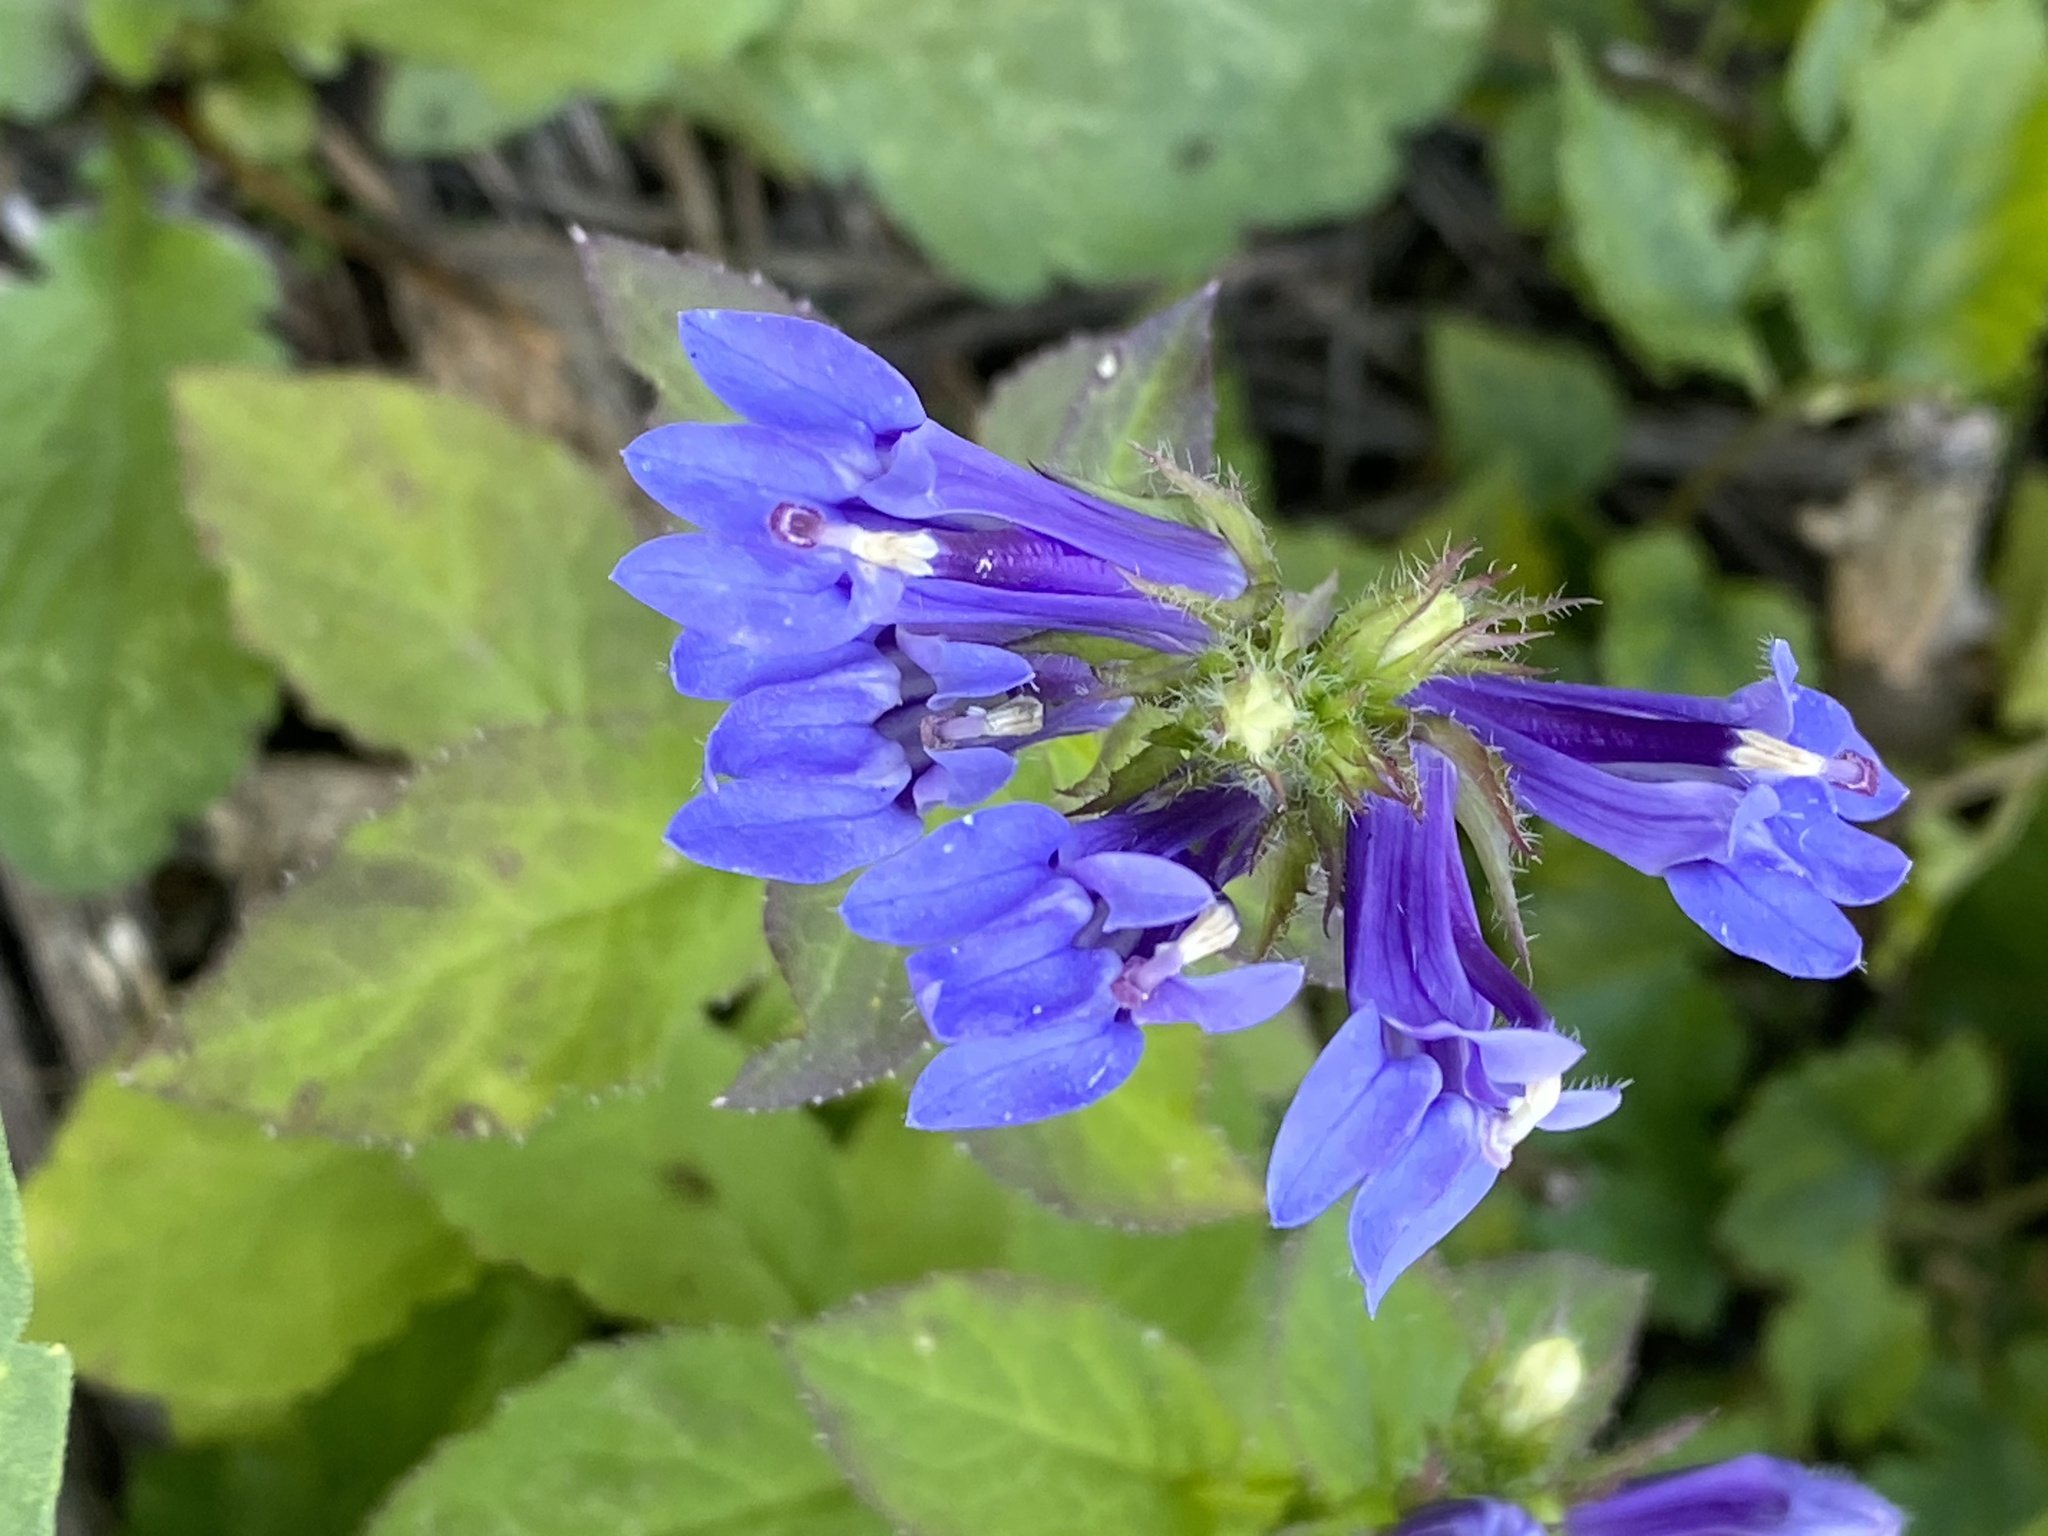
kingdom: Plantae
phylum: Tracheophyta
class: Magnoliopsida
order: Asterales
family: Campanulaceae
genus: Lobelia
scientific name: Lobelia siphilitica
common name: Great lobelia
